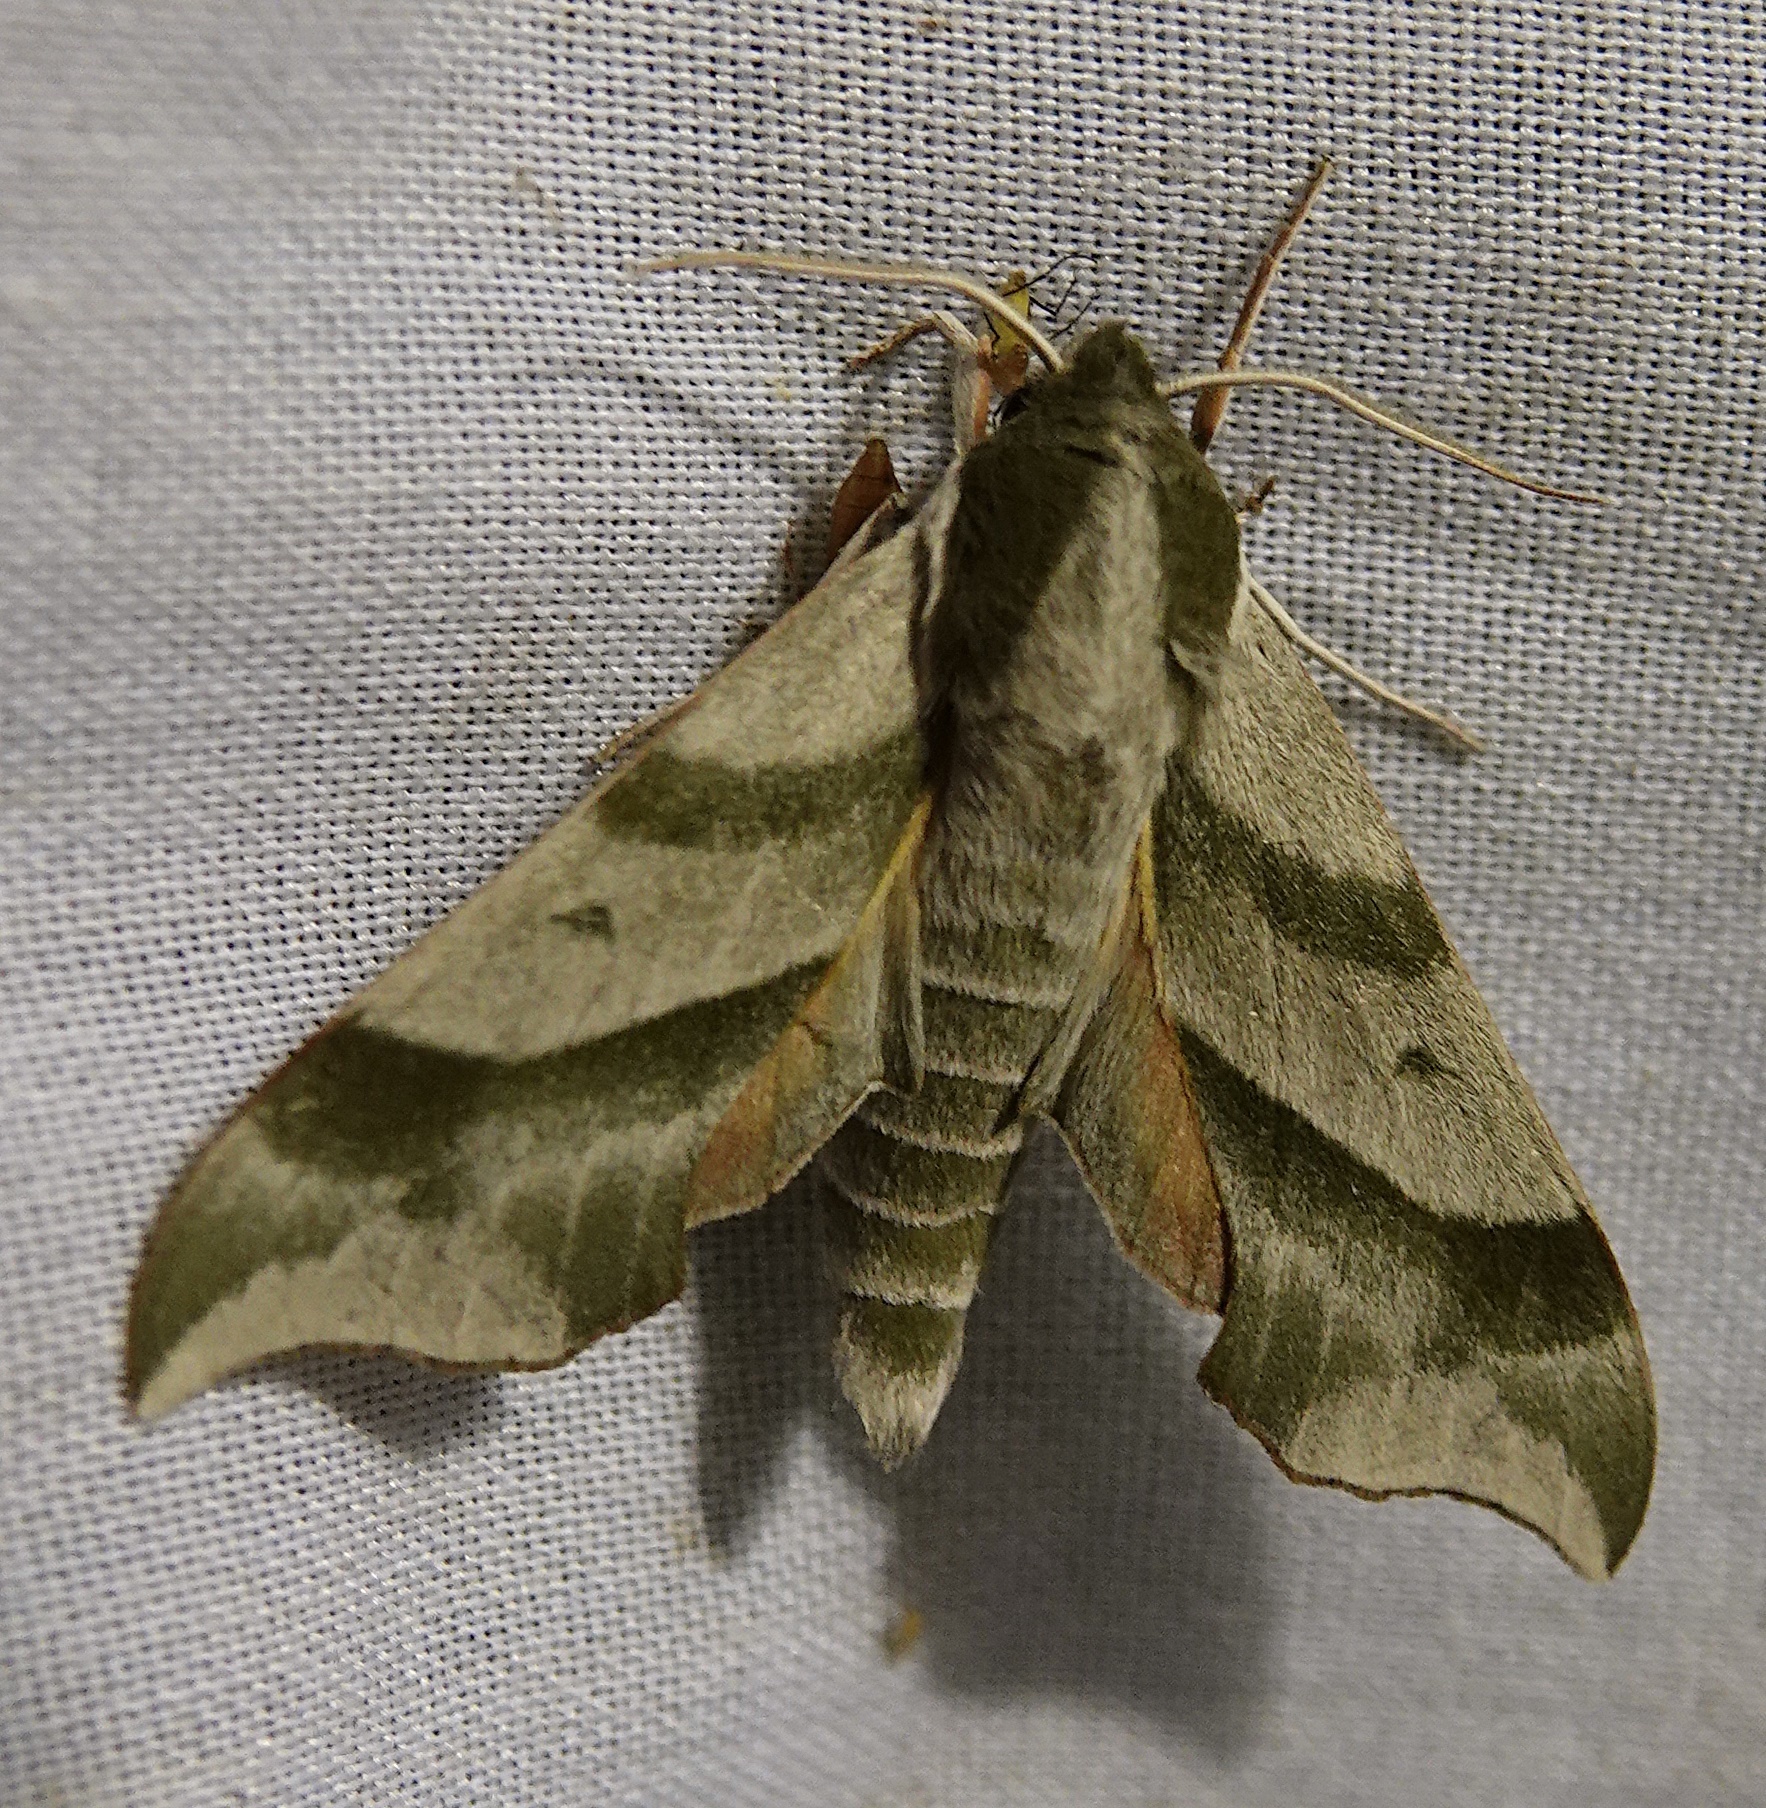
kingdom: Animalia
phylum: Arthropoda
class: Insecta
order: Lepidoptera
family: Sphingidae
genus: Darapsa
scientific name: Darapsa myron
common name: Hog sphinx
